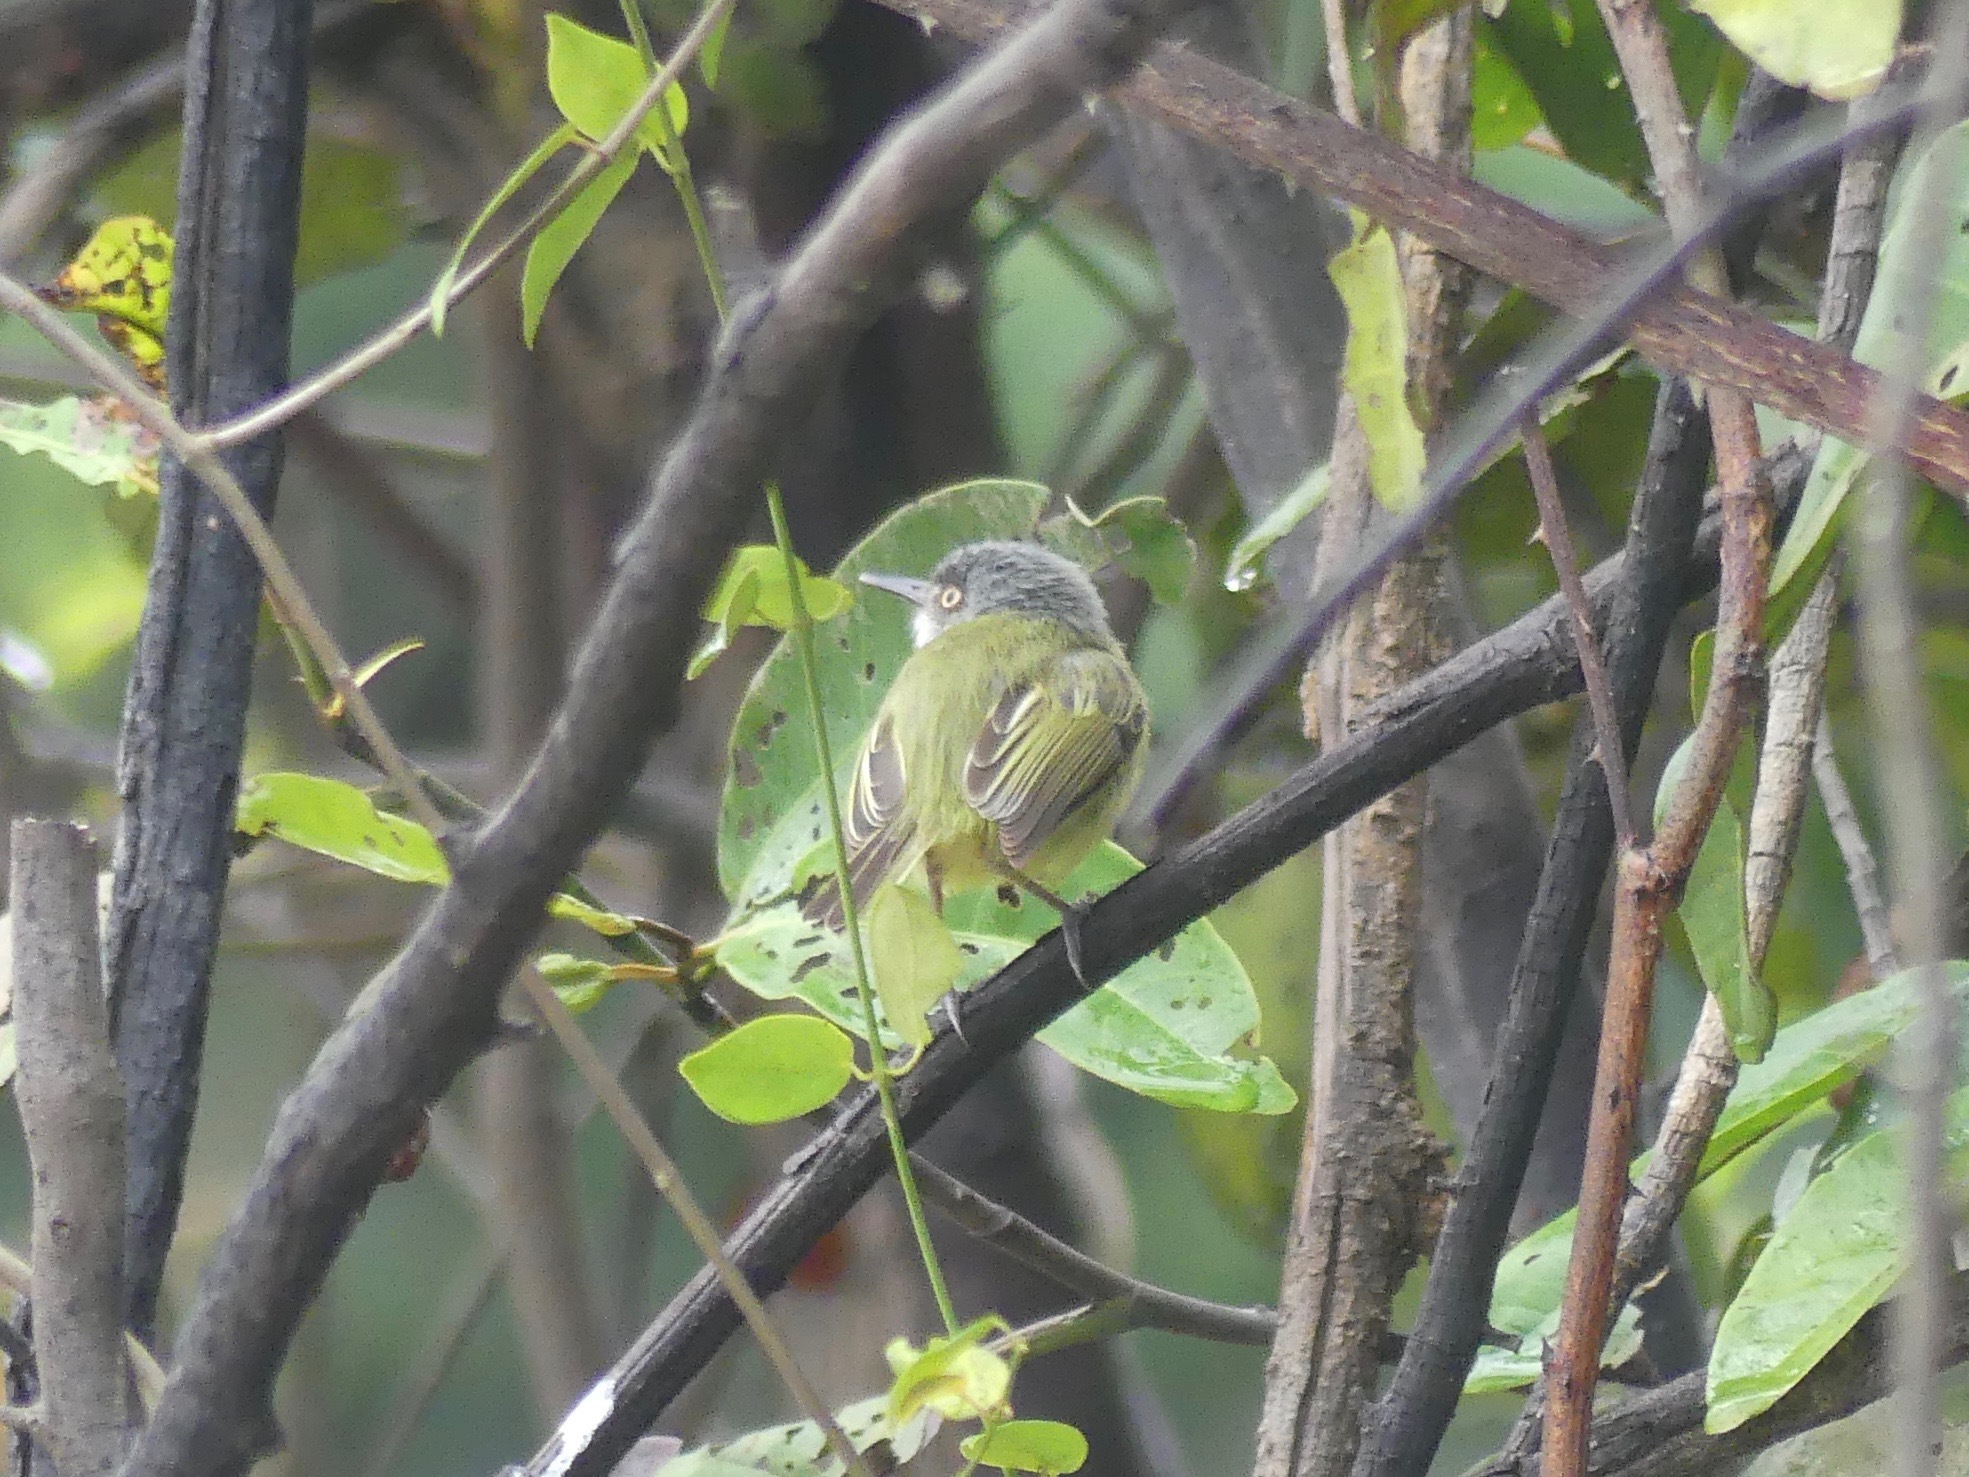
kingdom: Animalia
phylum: Chordata
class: Aves
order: Passeriformes
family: Tyrannidae
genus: Todirostrum
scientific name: Todirostrum maculatum
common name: Spotted tody-flycatcher
